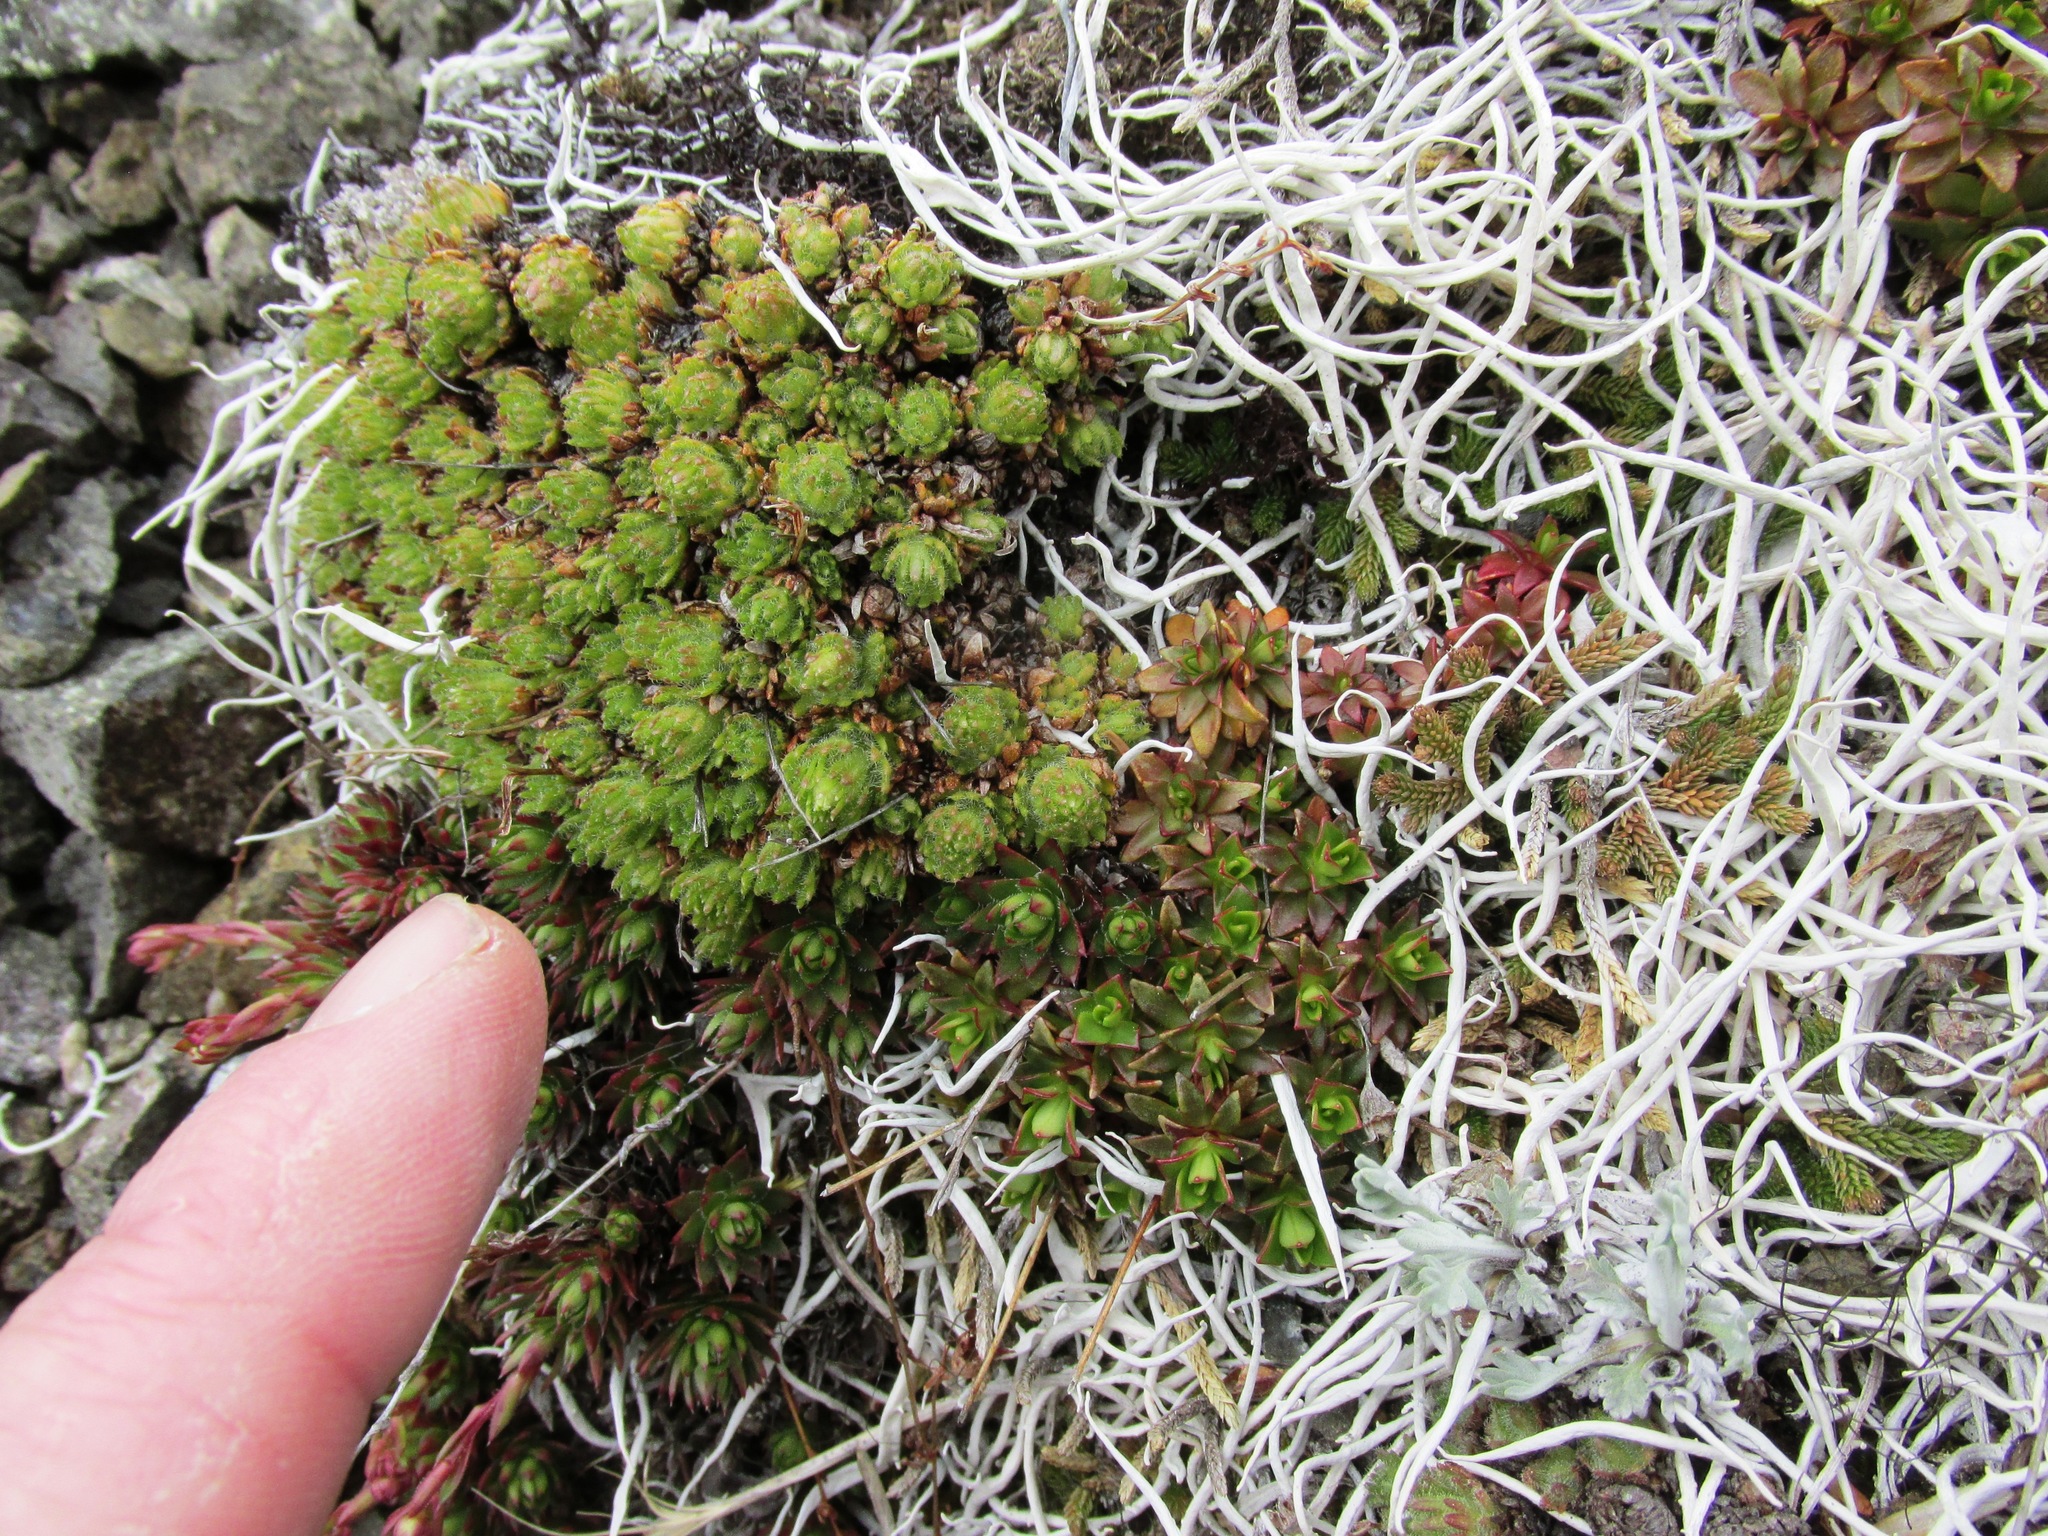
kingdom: Plantae
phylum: Tracheophyta
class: Magnoliopsida
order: Saxifragales
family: Saxifragaceae
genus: Saxifraga
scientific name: Saxifraga cespitosa
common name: Tufted saxifrage
